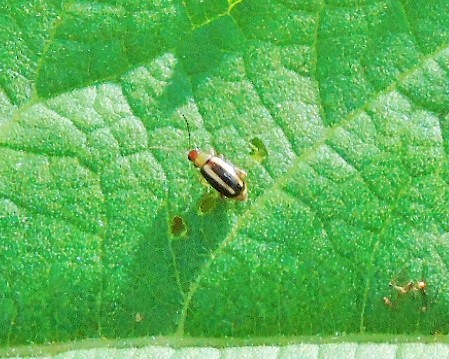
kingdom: Animalia
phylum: Arthropoda
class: Insecta
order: Coleoptera
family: Chrysomelidae
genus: Systena
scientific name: Systena
